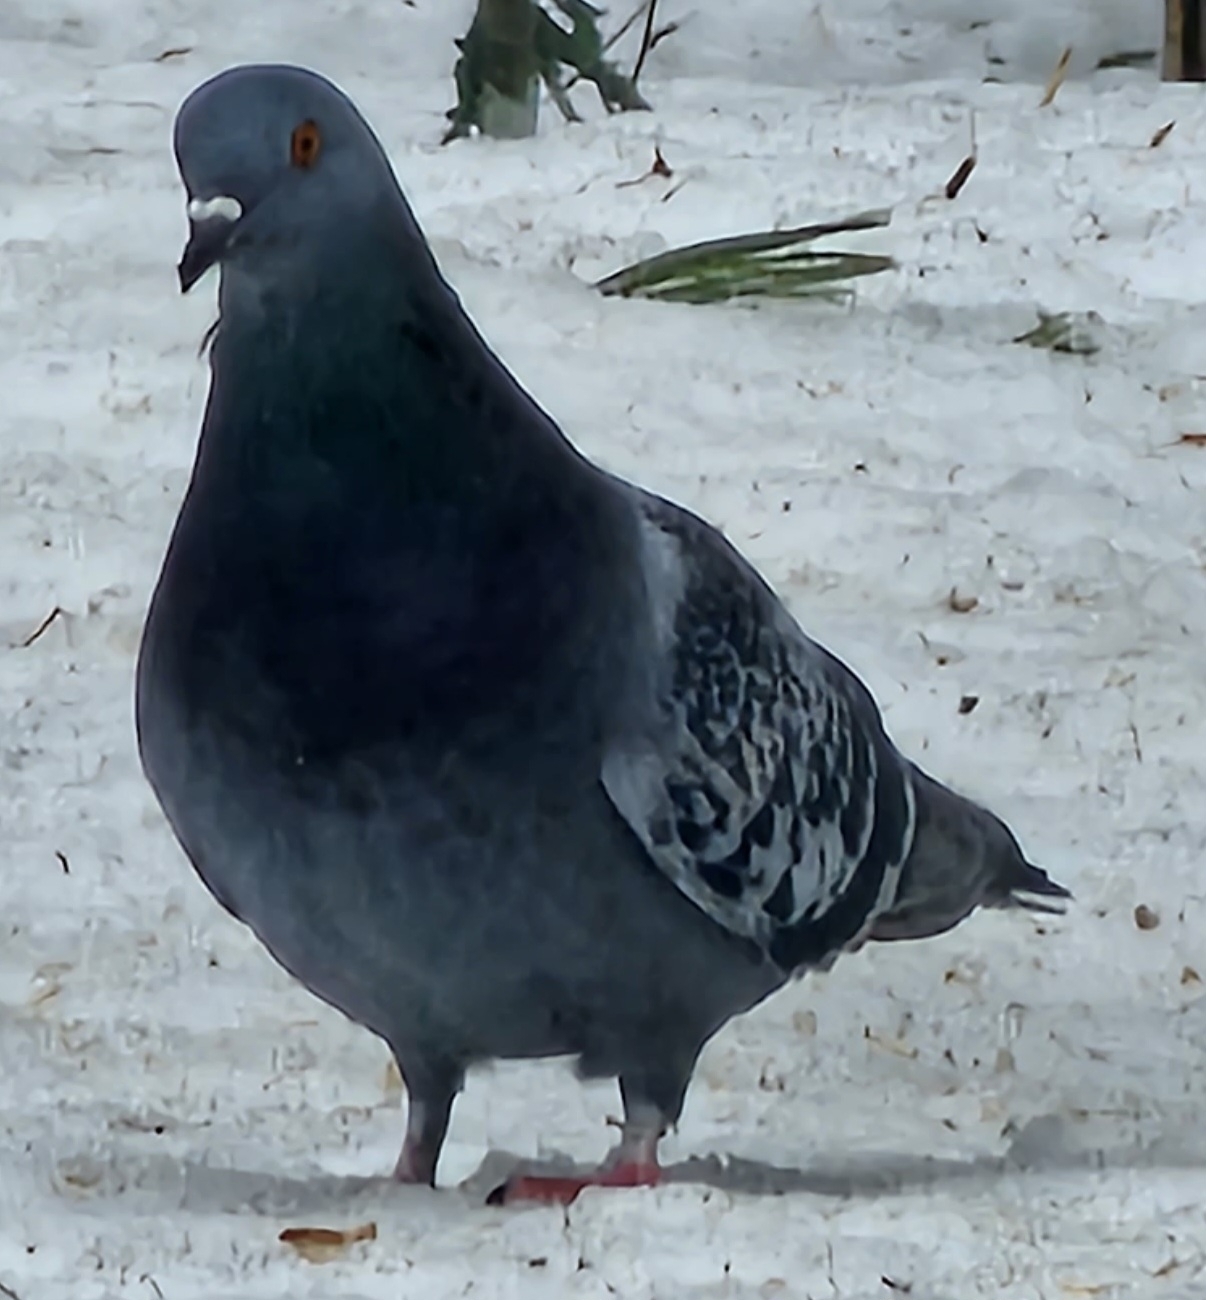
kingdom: Animalia
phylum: Chordata
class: Aves
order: Columbiformes
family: Columbidae
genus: Columba
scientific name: Columba livia
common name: Rock pigeon
